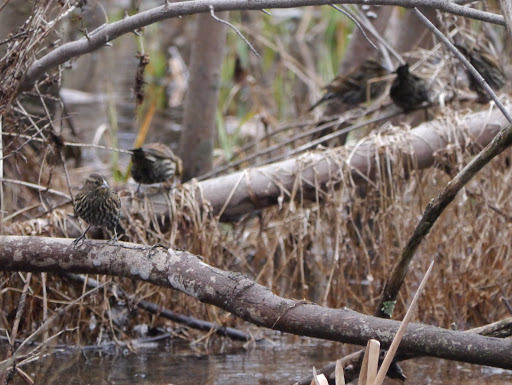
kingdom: Animalia
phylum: Chordata
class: Aves
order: Passeriformes
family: Icteridae
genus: Agelaius
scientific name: Agelaius phoeniceus
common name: Red-winged blackbird
